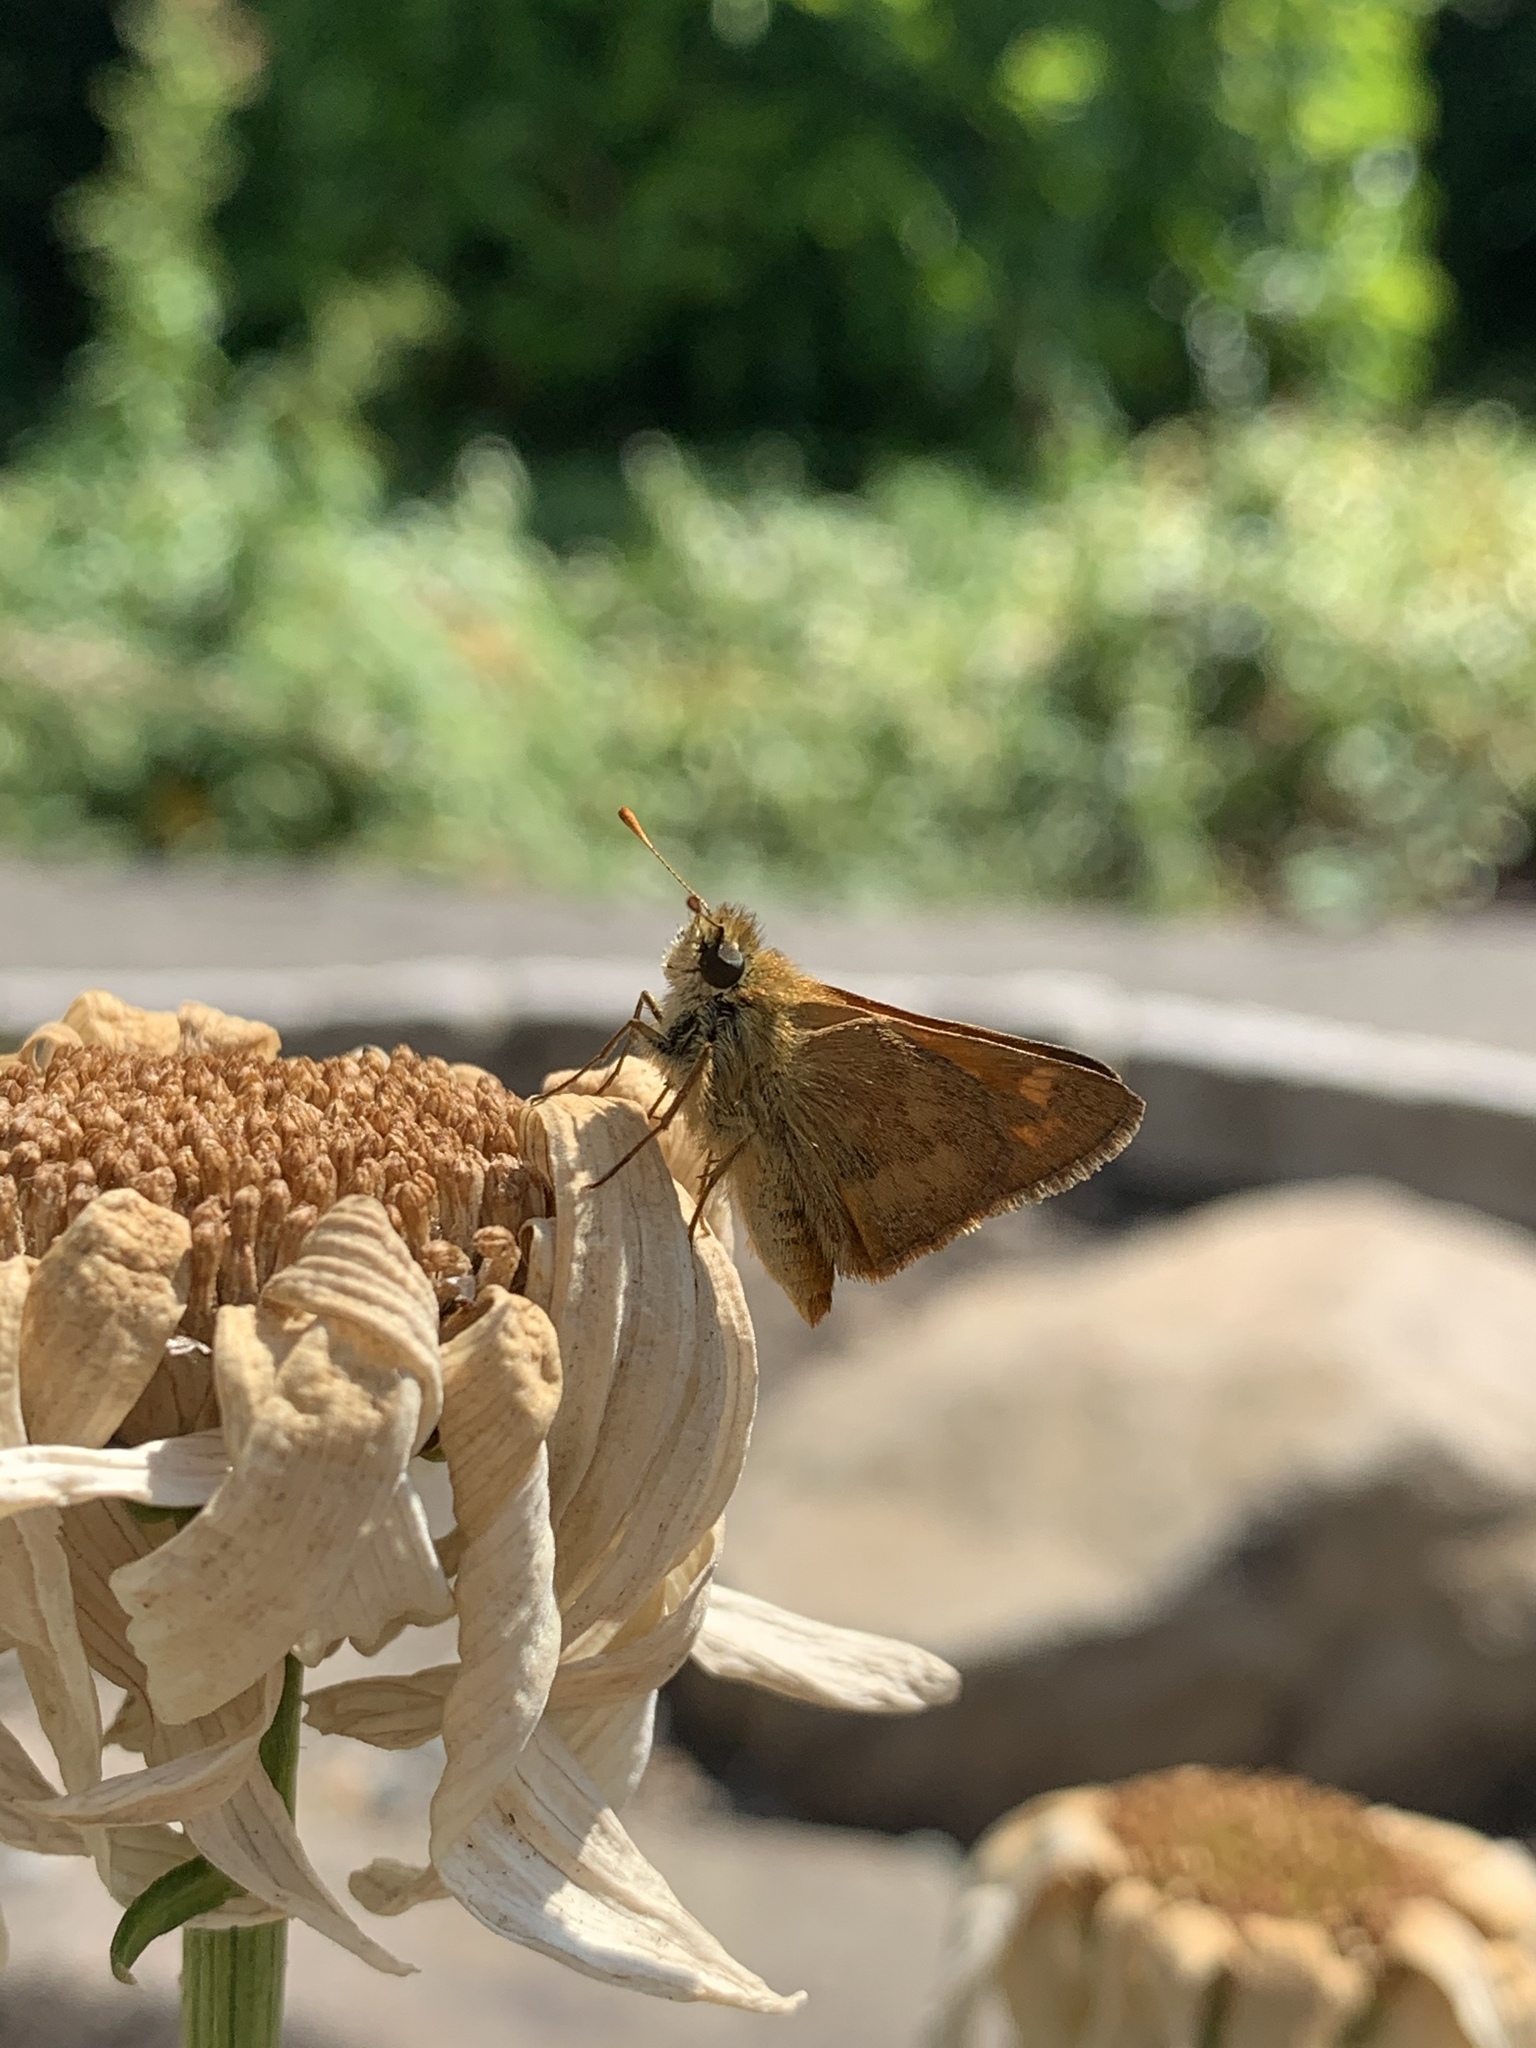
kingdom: Animalia
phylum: Arthropoda
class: Insecta
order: Lepidoptera
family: Hesperiidae
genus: Ochlodes
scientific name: Ochlodes sylvanoides
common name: Woodland skipper
